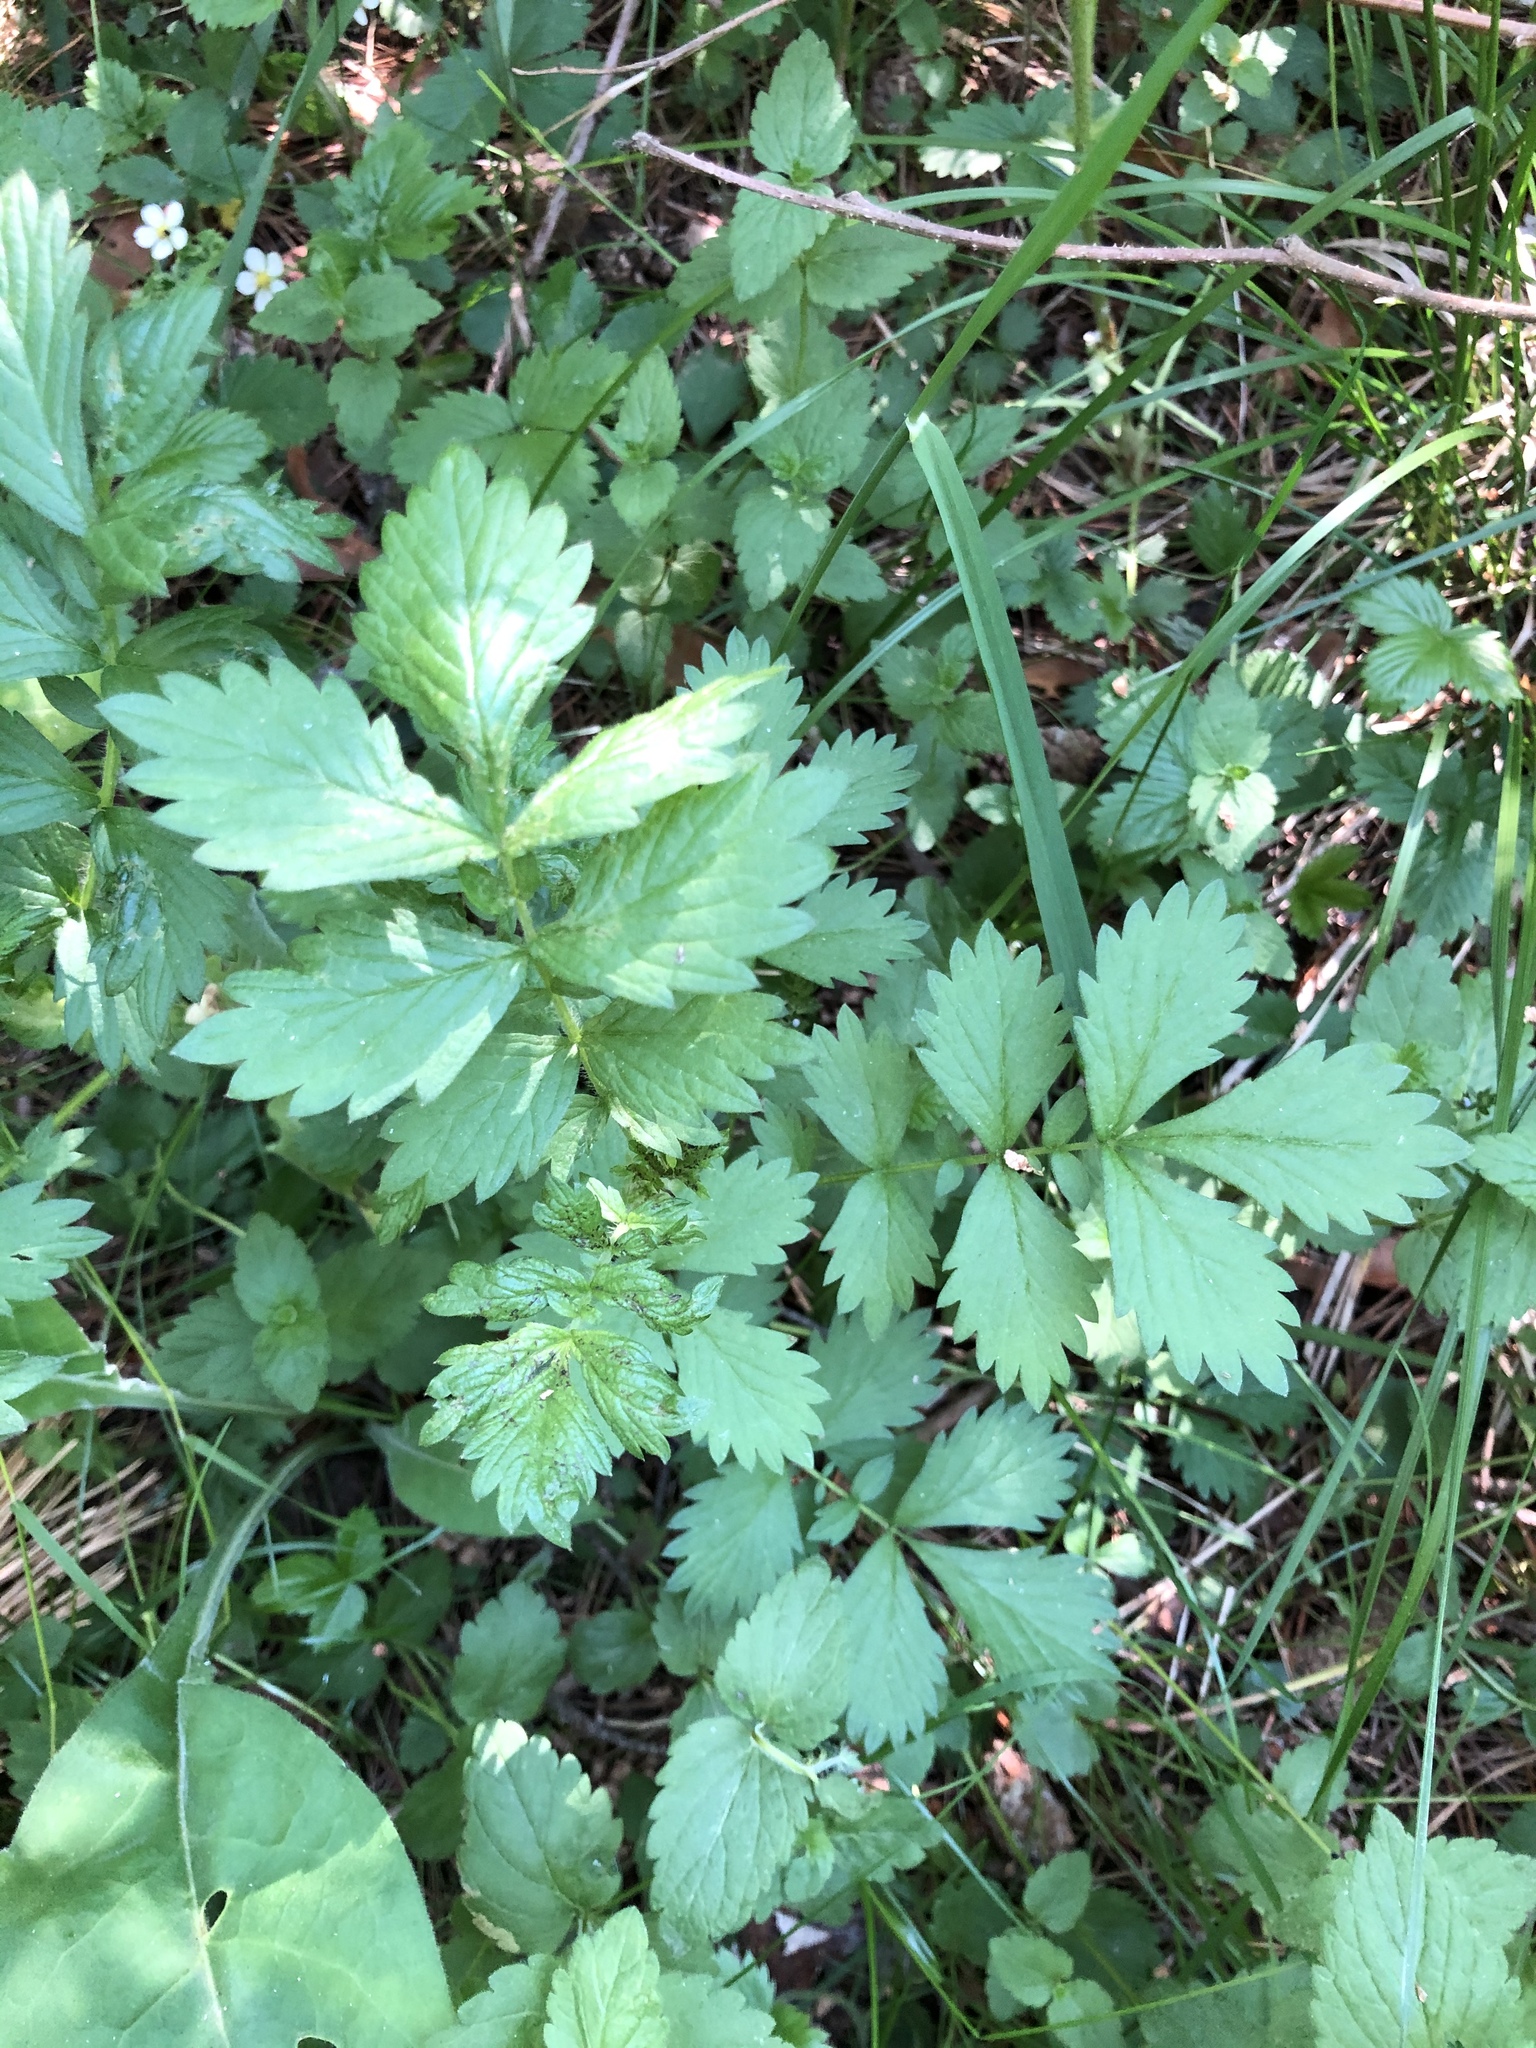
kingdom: Plantae
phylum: Tracheophyta
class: Magnoliopsida
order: Rosales
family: Rosaceae
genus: Agrimonia
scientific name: Agrimonia pilosa
